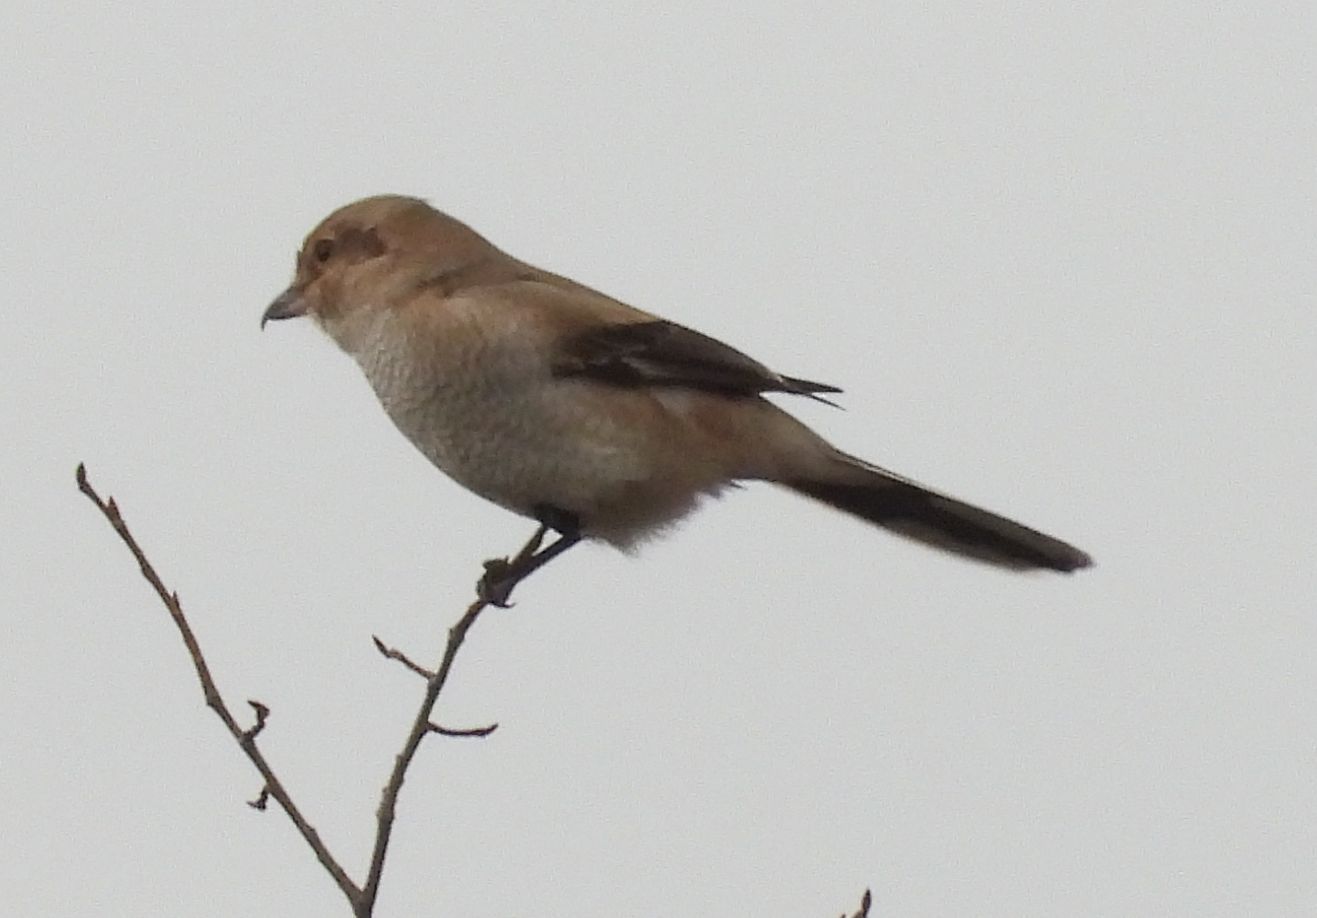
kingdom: Animalia
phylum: Chordata
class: Aves
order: Passeriformes
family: Laniidae
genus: Lanius
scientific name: Lanius borealis
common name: Northern shrike
